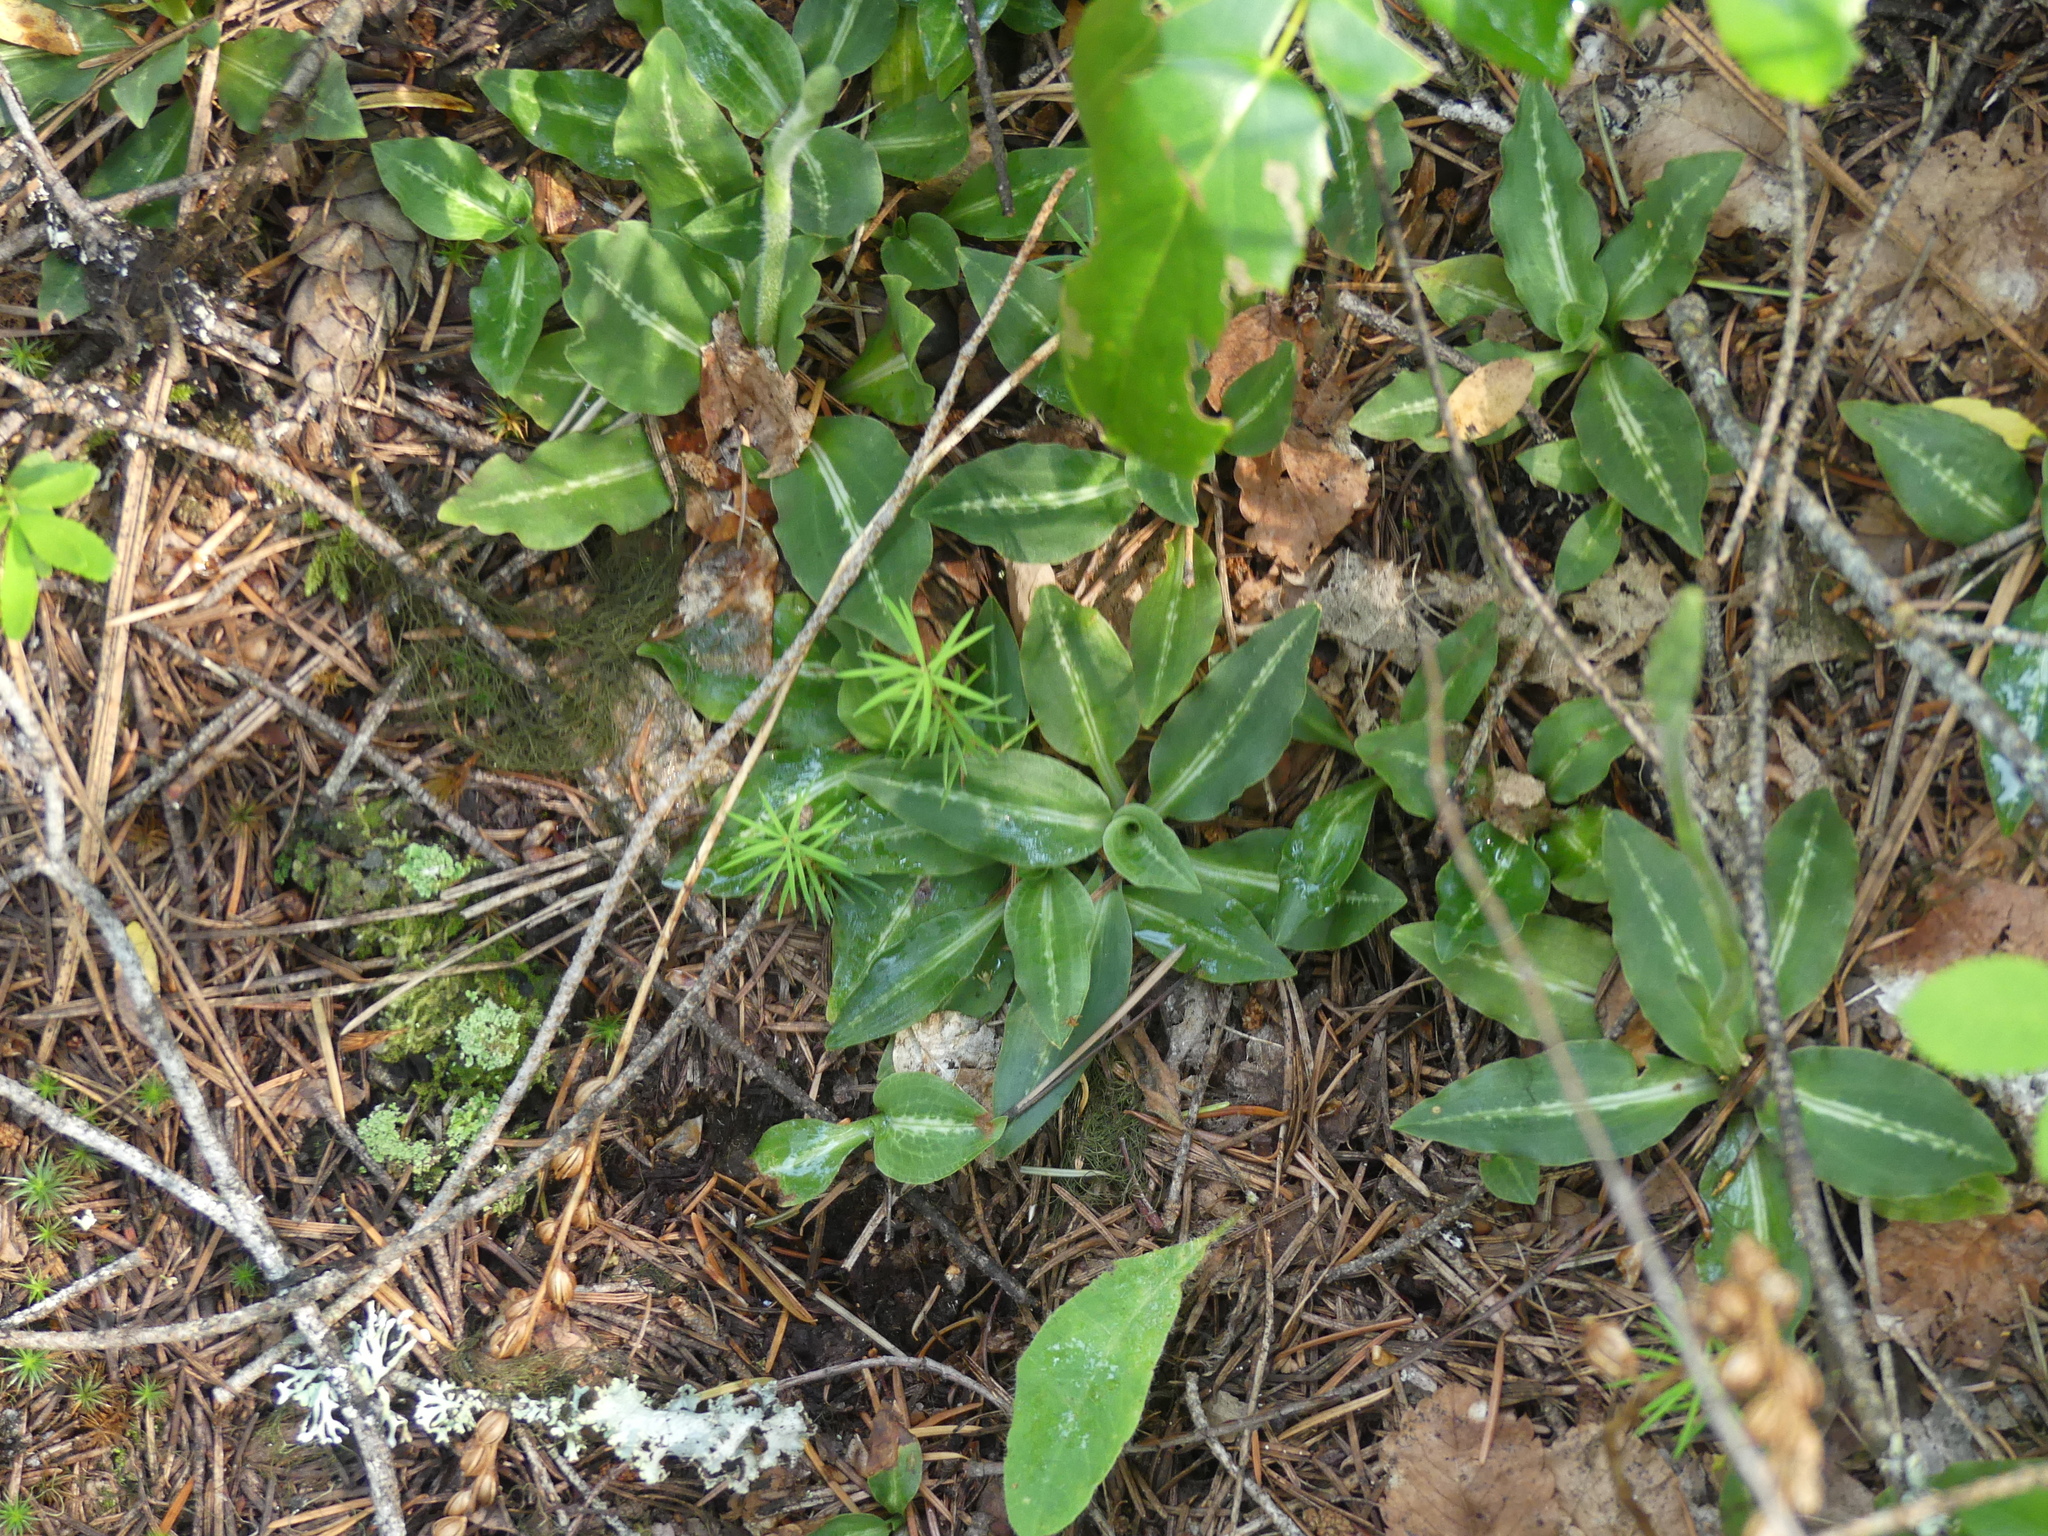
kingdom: Plantae
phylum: Tracheophyta
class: Liliopsida
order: Asparagales
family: Orchidaceae
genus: Goodyera
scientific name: Goodyera oblongifolia
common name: Giant rattlesnake-plantain
